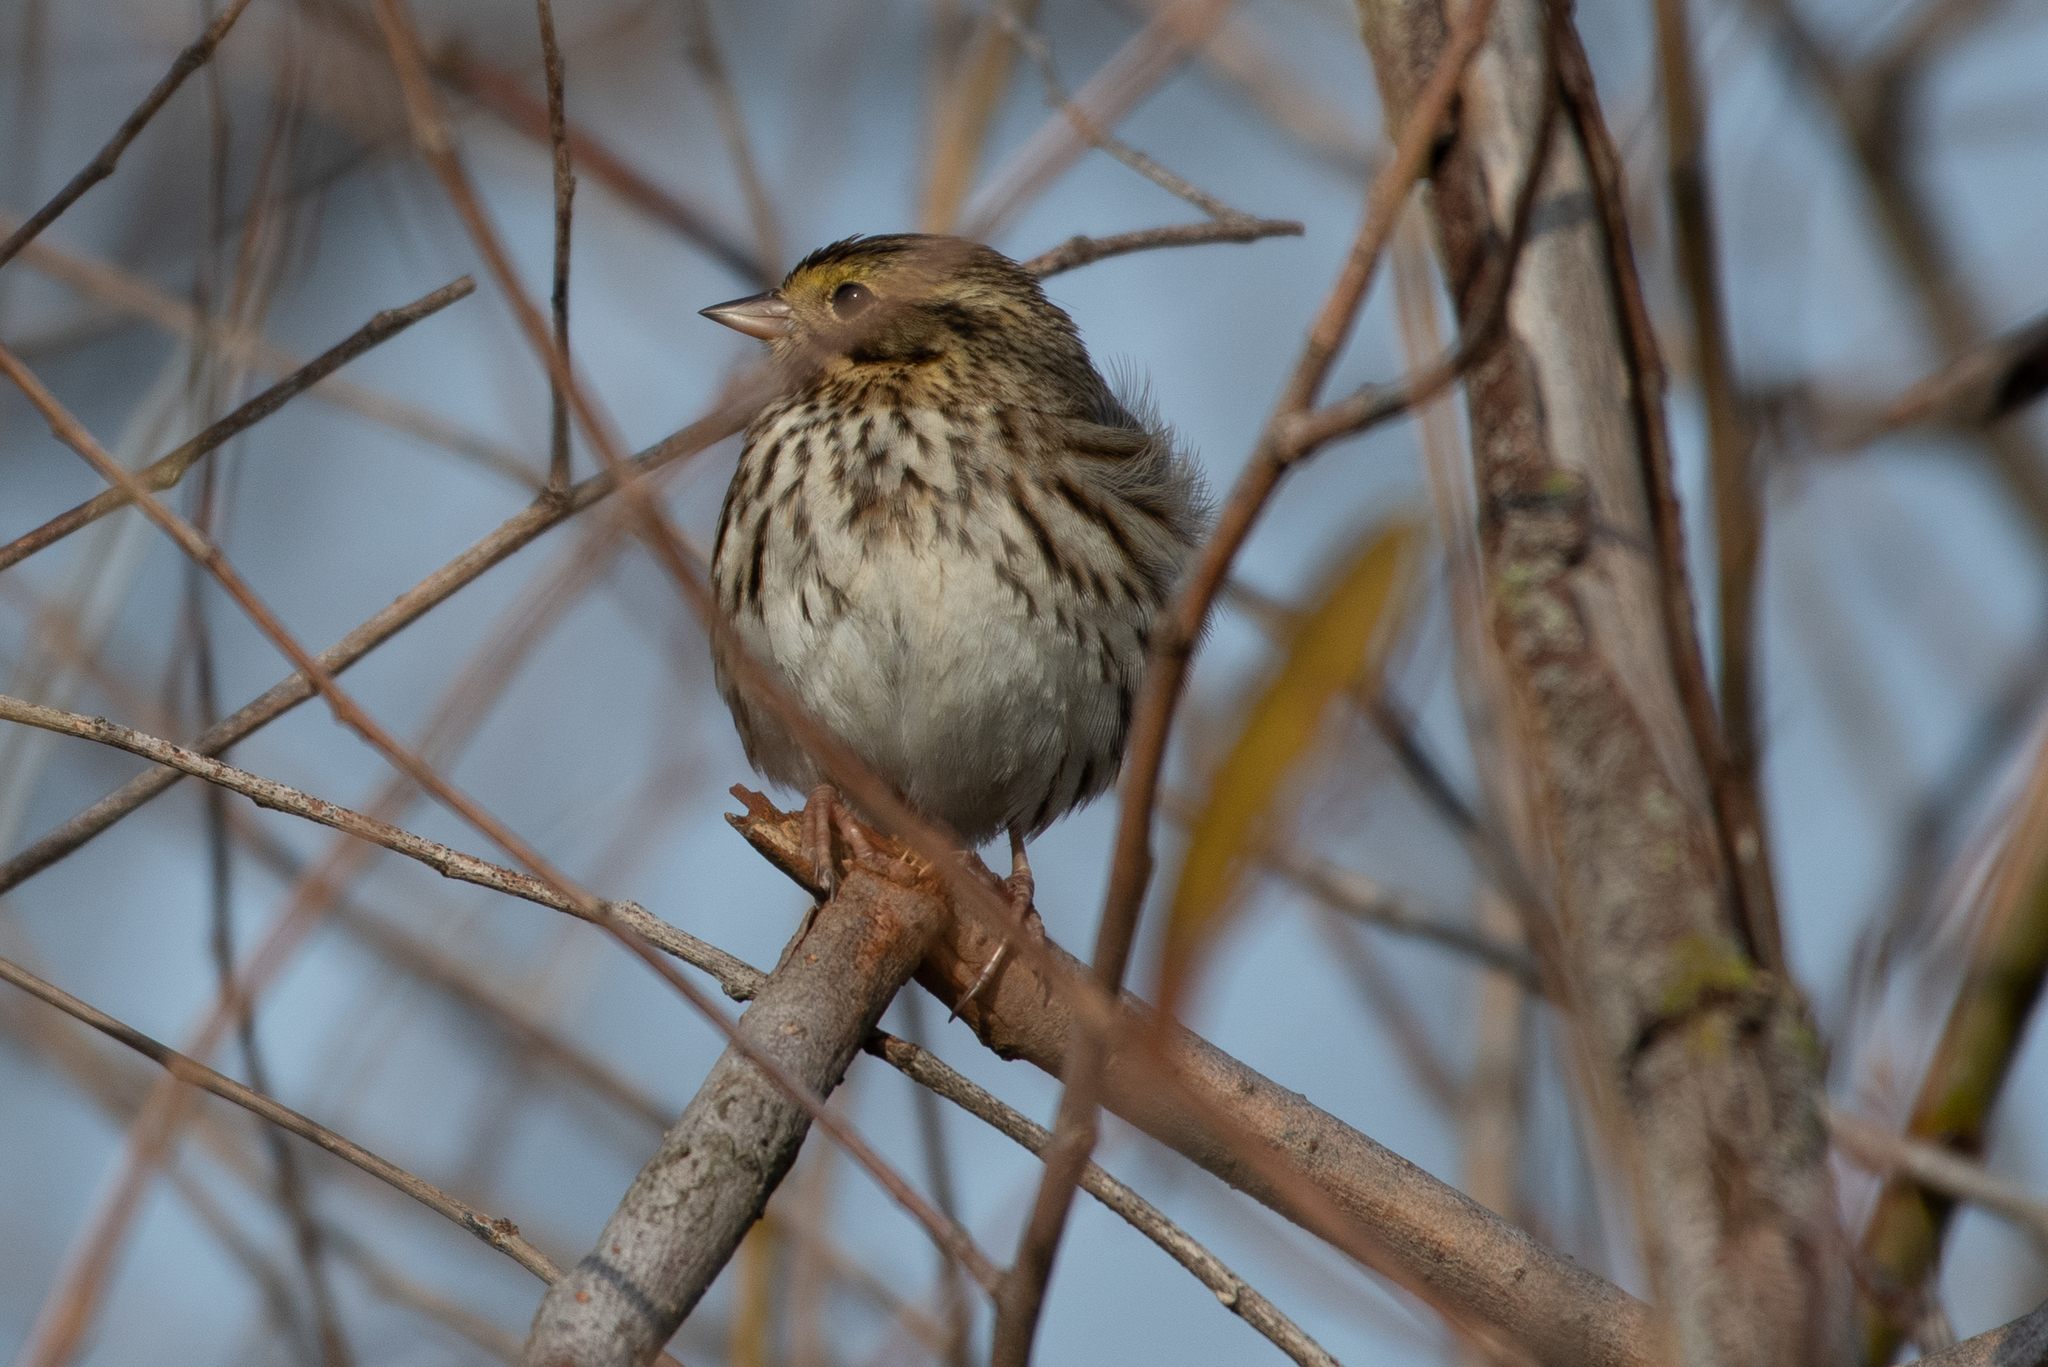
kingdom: Animalia
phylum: Chordata
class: Aves
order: Passeriformes
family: Passerellidae
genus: Passerculus
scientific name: Passerculus sandwichensis
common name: Savannah sparrow
